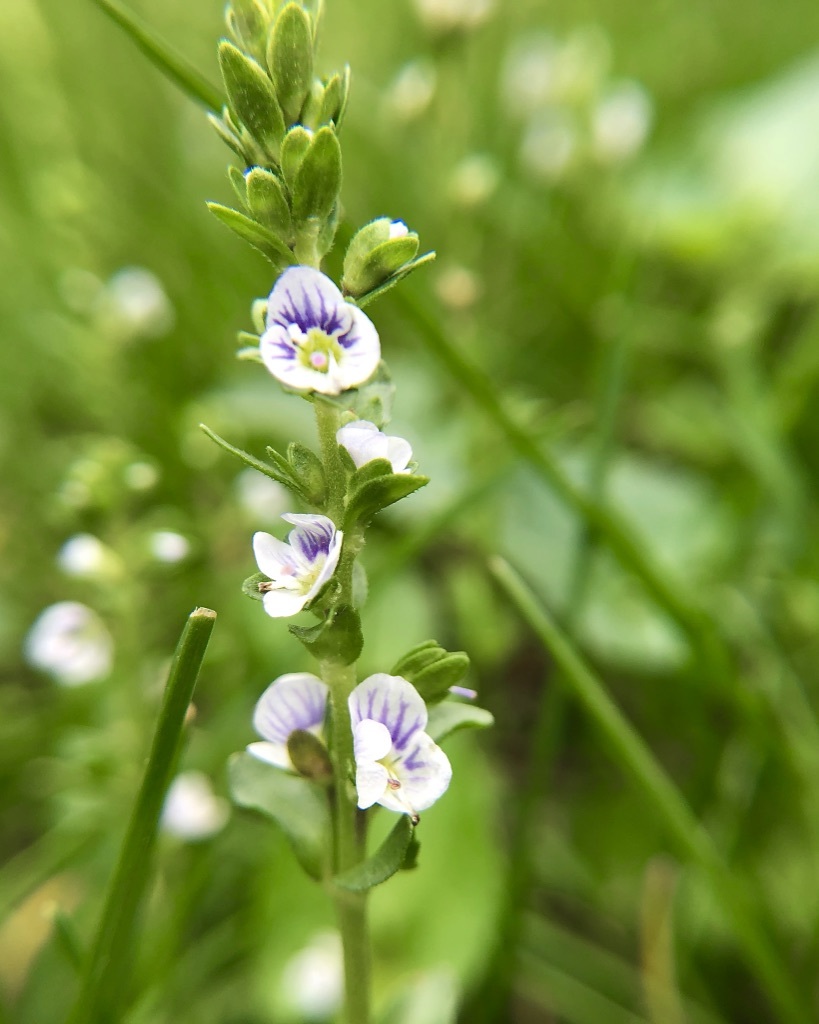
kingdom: Plantae
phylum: Tracheophyta
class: Magnoliopsida
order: Lamiales
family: Plantaginaceae
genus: Veronica
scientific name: Veronica serpyllifolia
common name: Thyme-leaved speedwell
